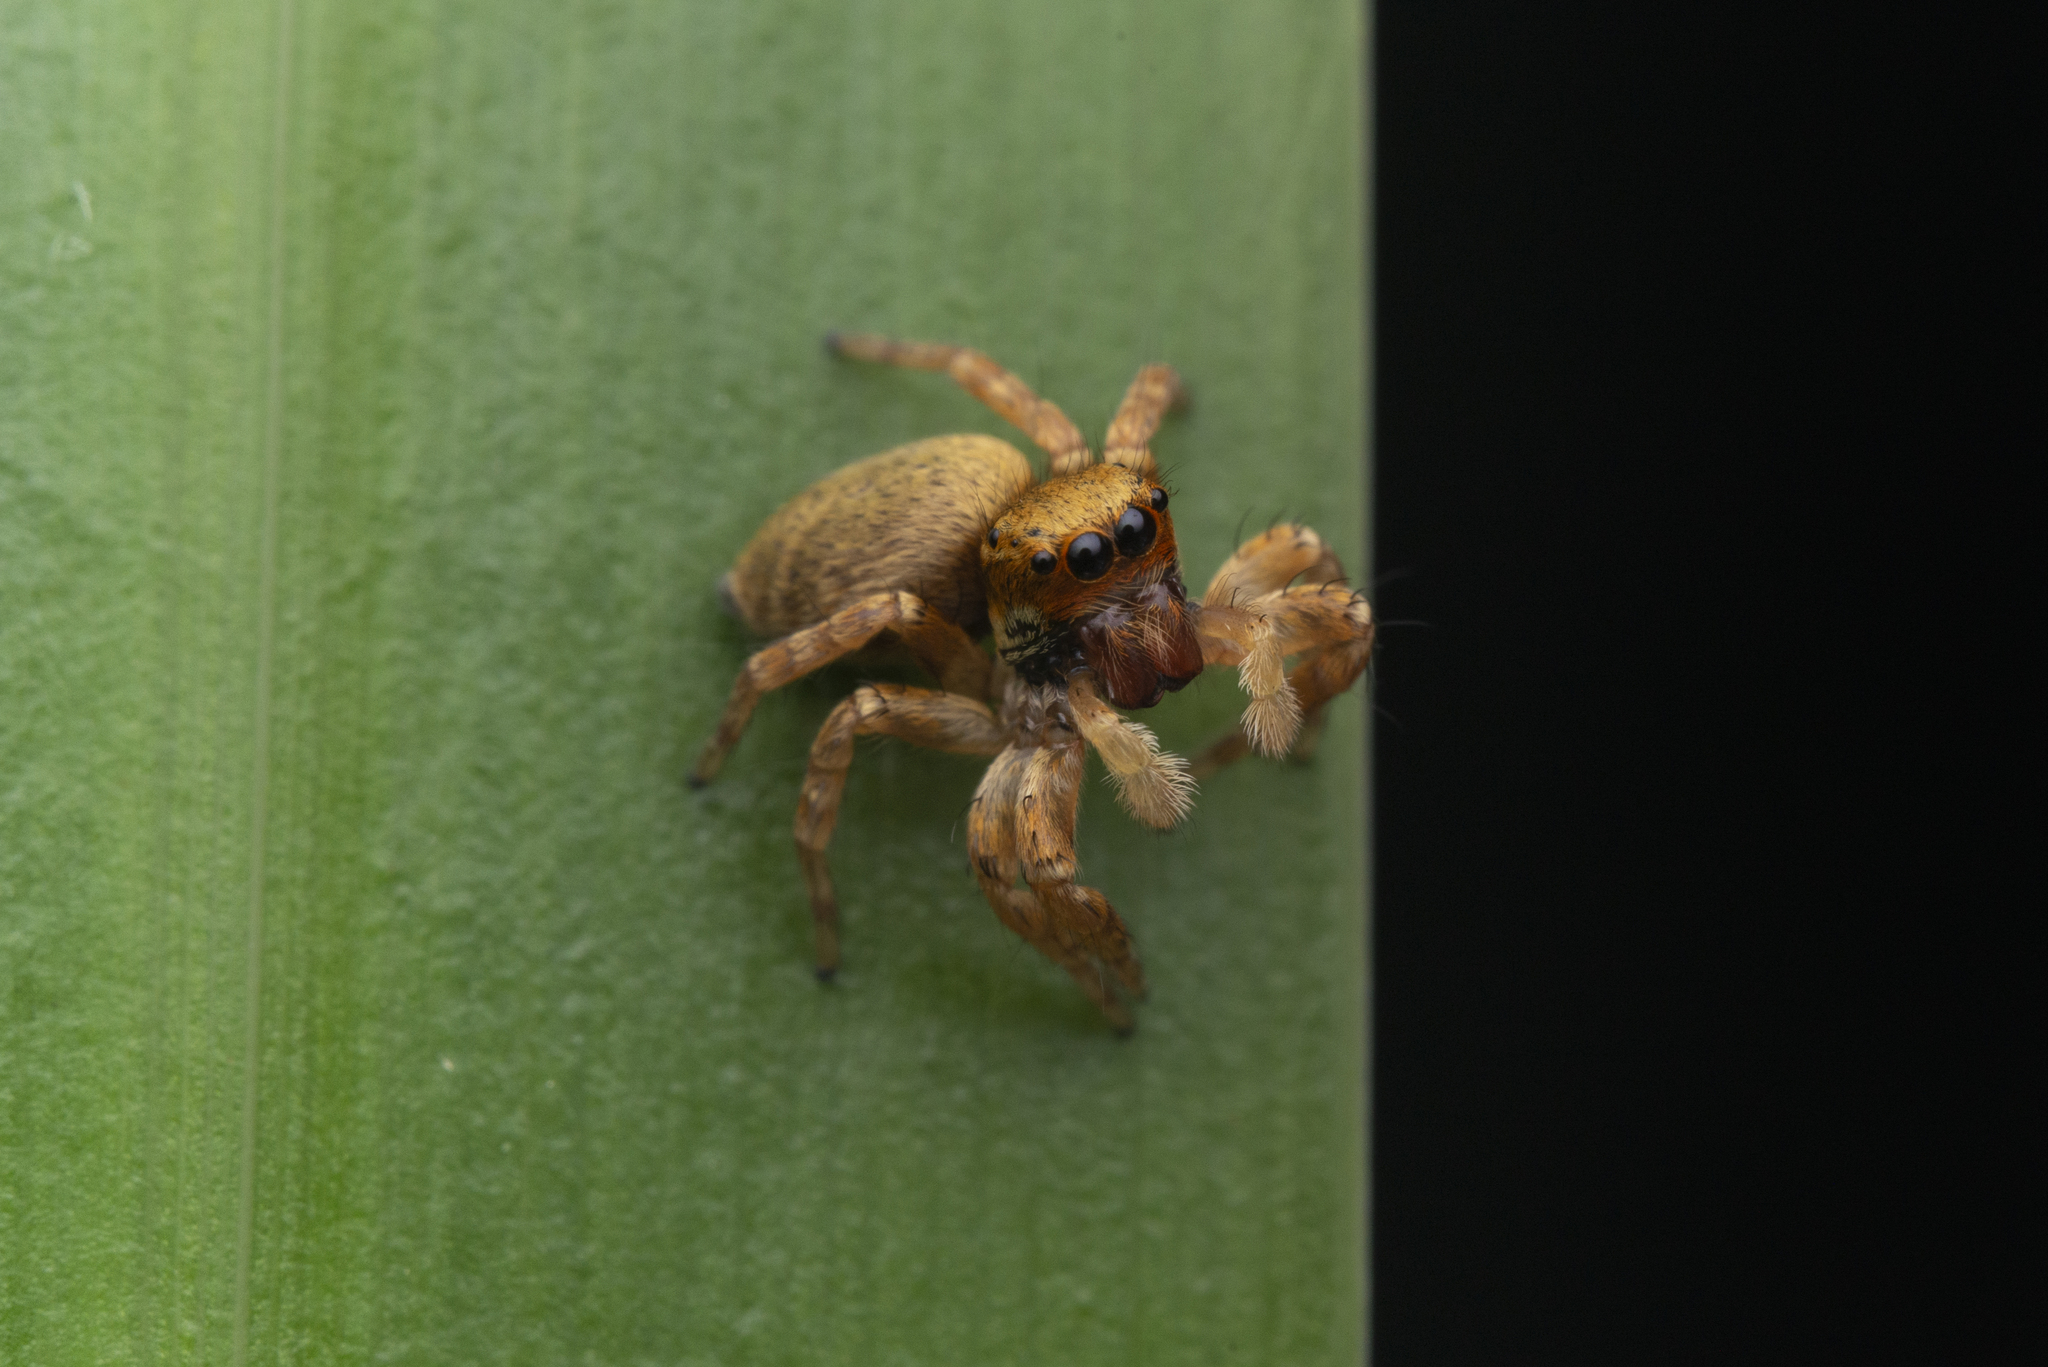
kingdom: Animalia
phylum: Arthropoda
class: Arachnida
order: Araneae
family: Salticidae
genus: Carrhotus
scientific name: Carrhotus sannio
